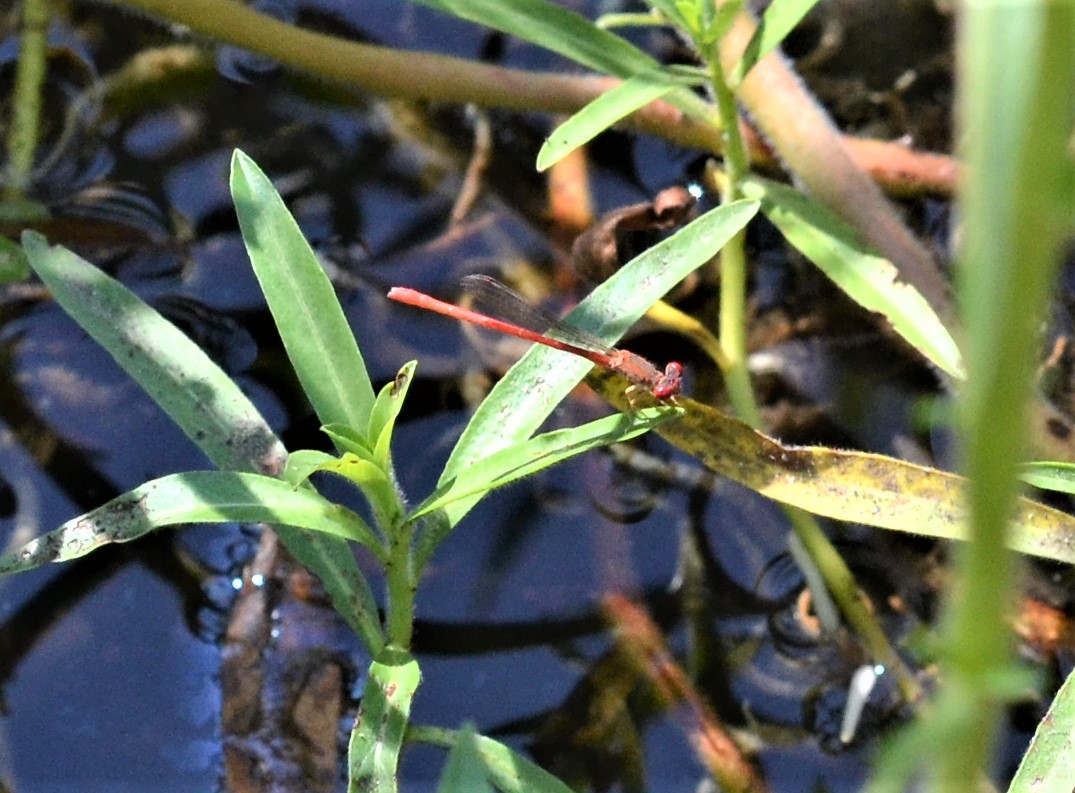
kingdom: Animalia
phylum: Arthropoda
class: Insecta
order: Odonata
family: Coenagrionidae
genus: Telebasis
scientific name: Telebasis salva
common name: Desert firetail
